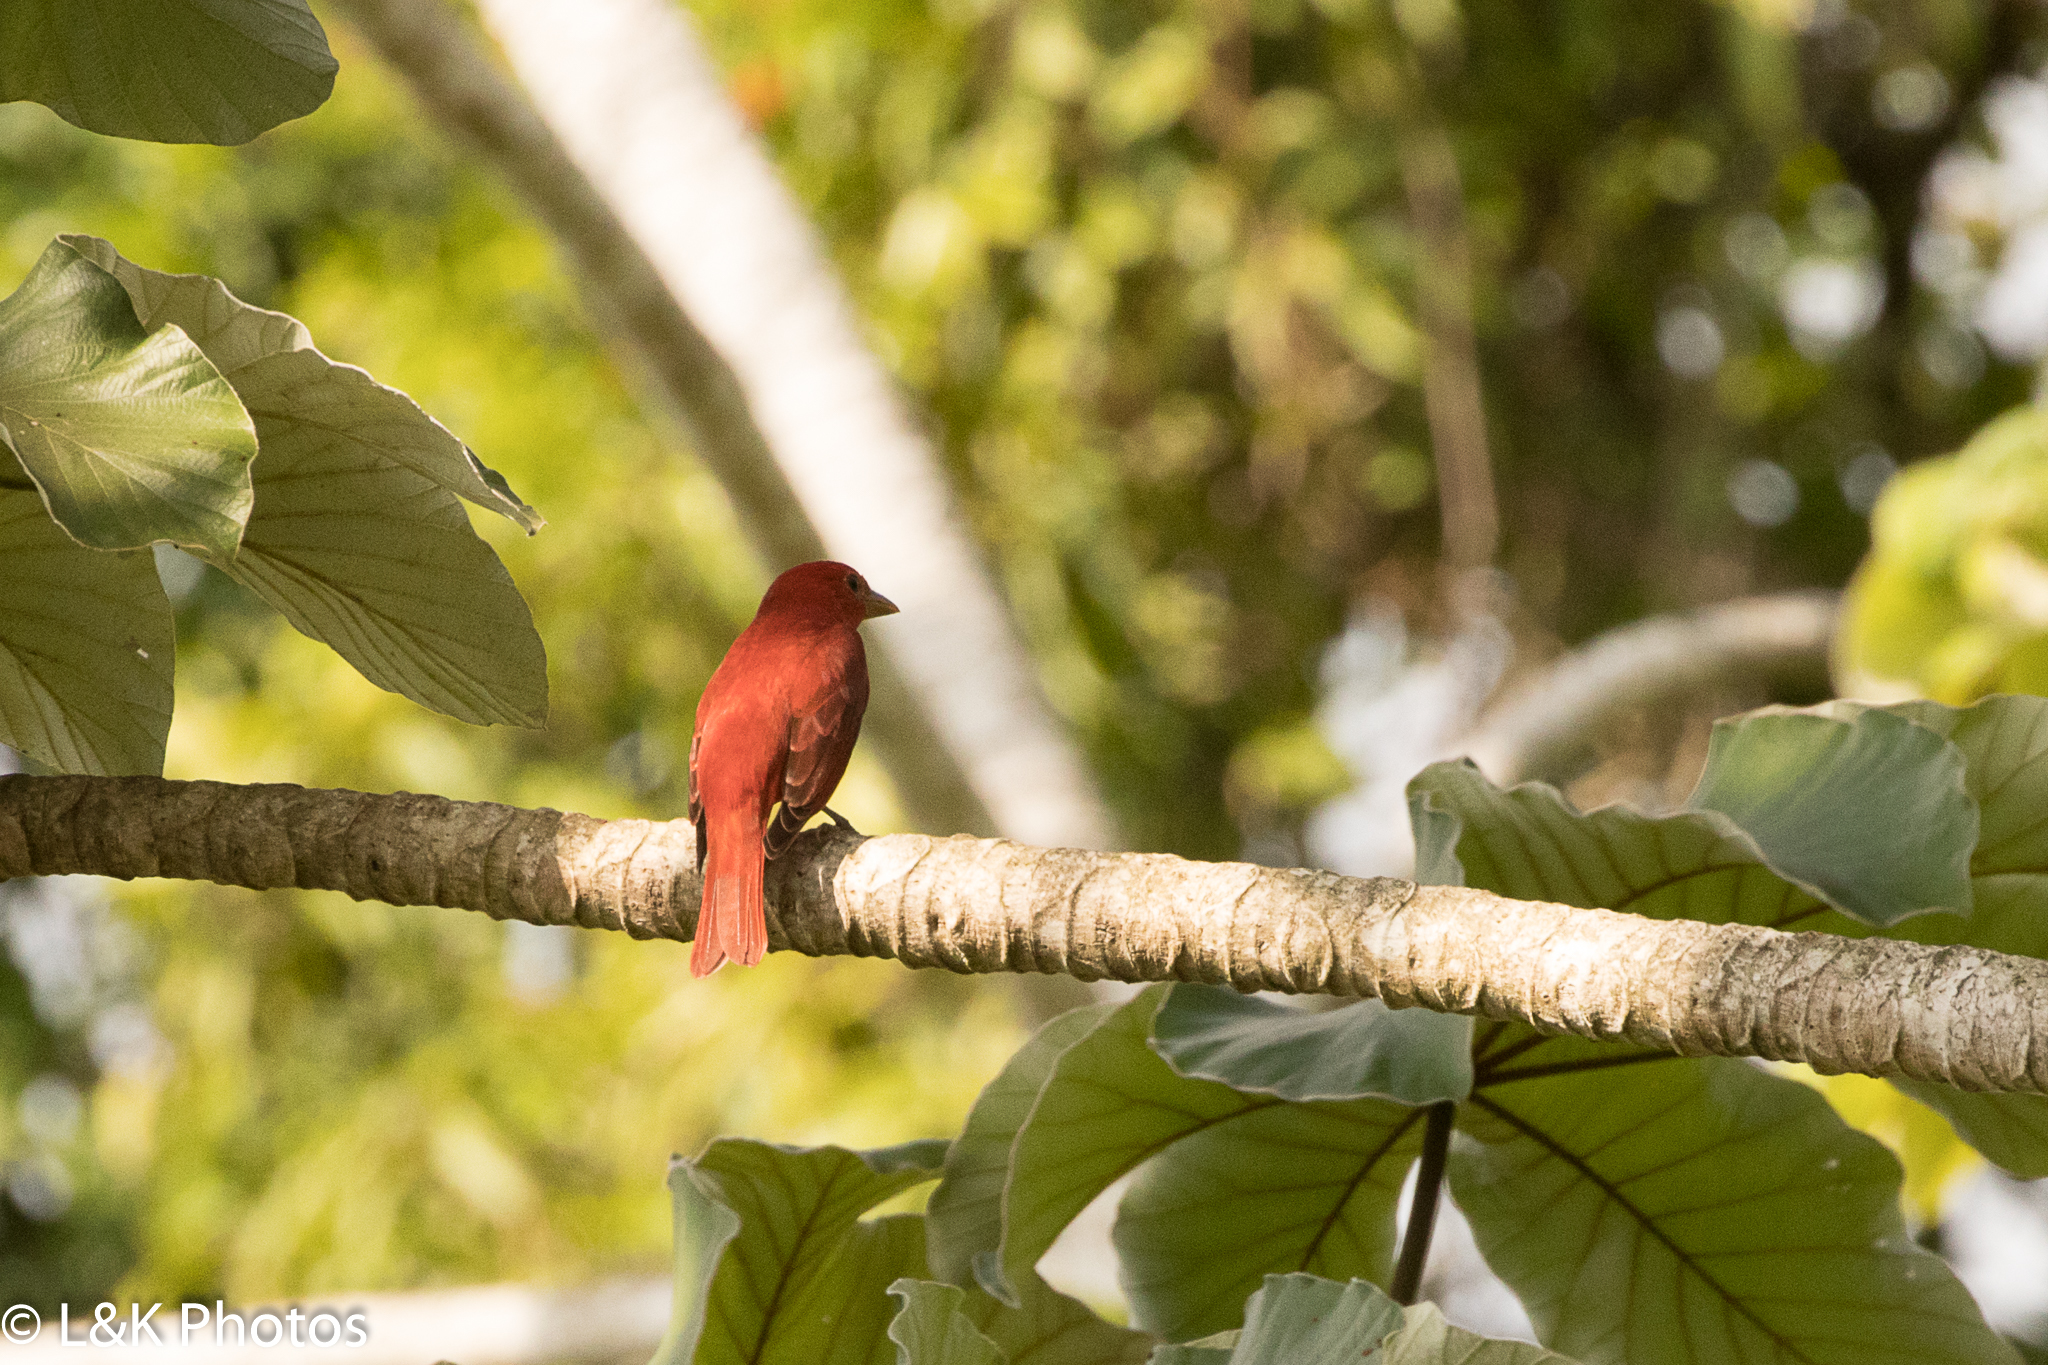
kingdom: Animalia
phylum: Chordata
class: Aves
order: Passeriformes
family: Cardinalidae
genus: Piranga
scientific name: Piranga rubra
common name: Summer tanager
